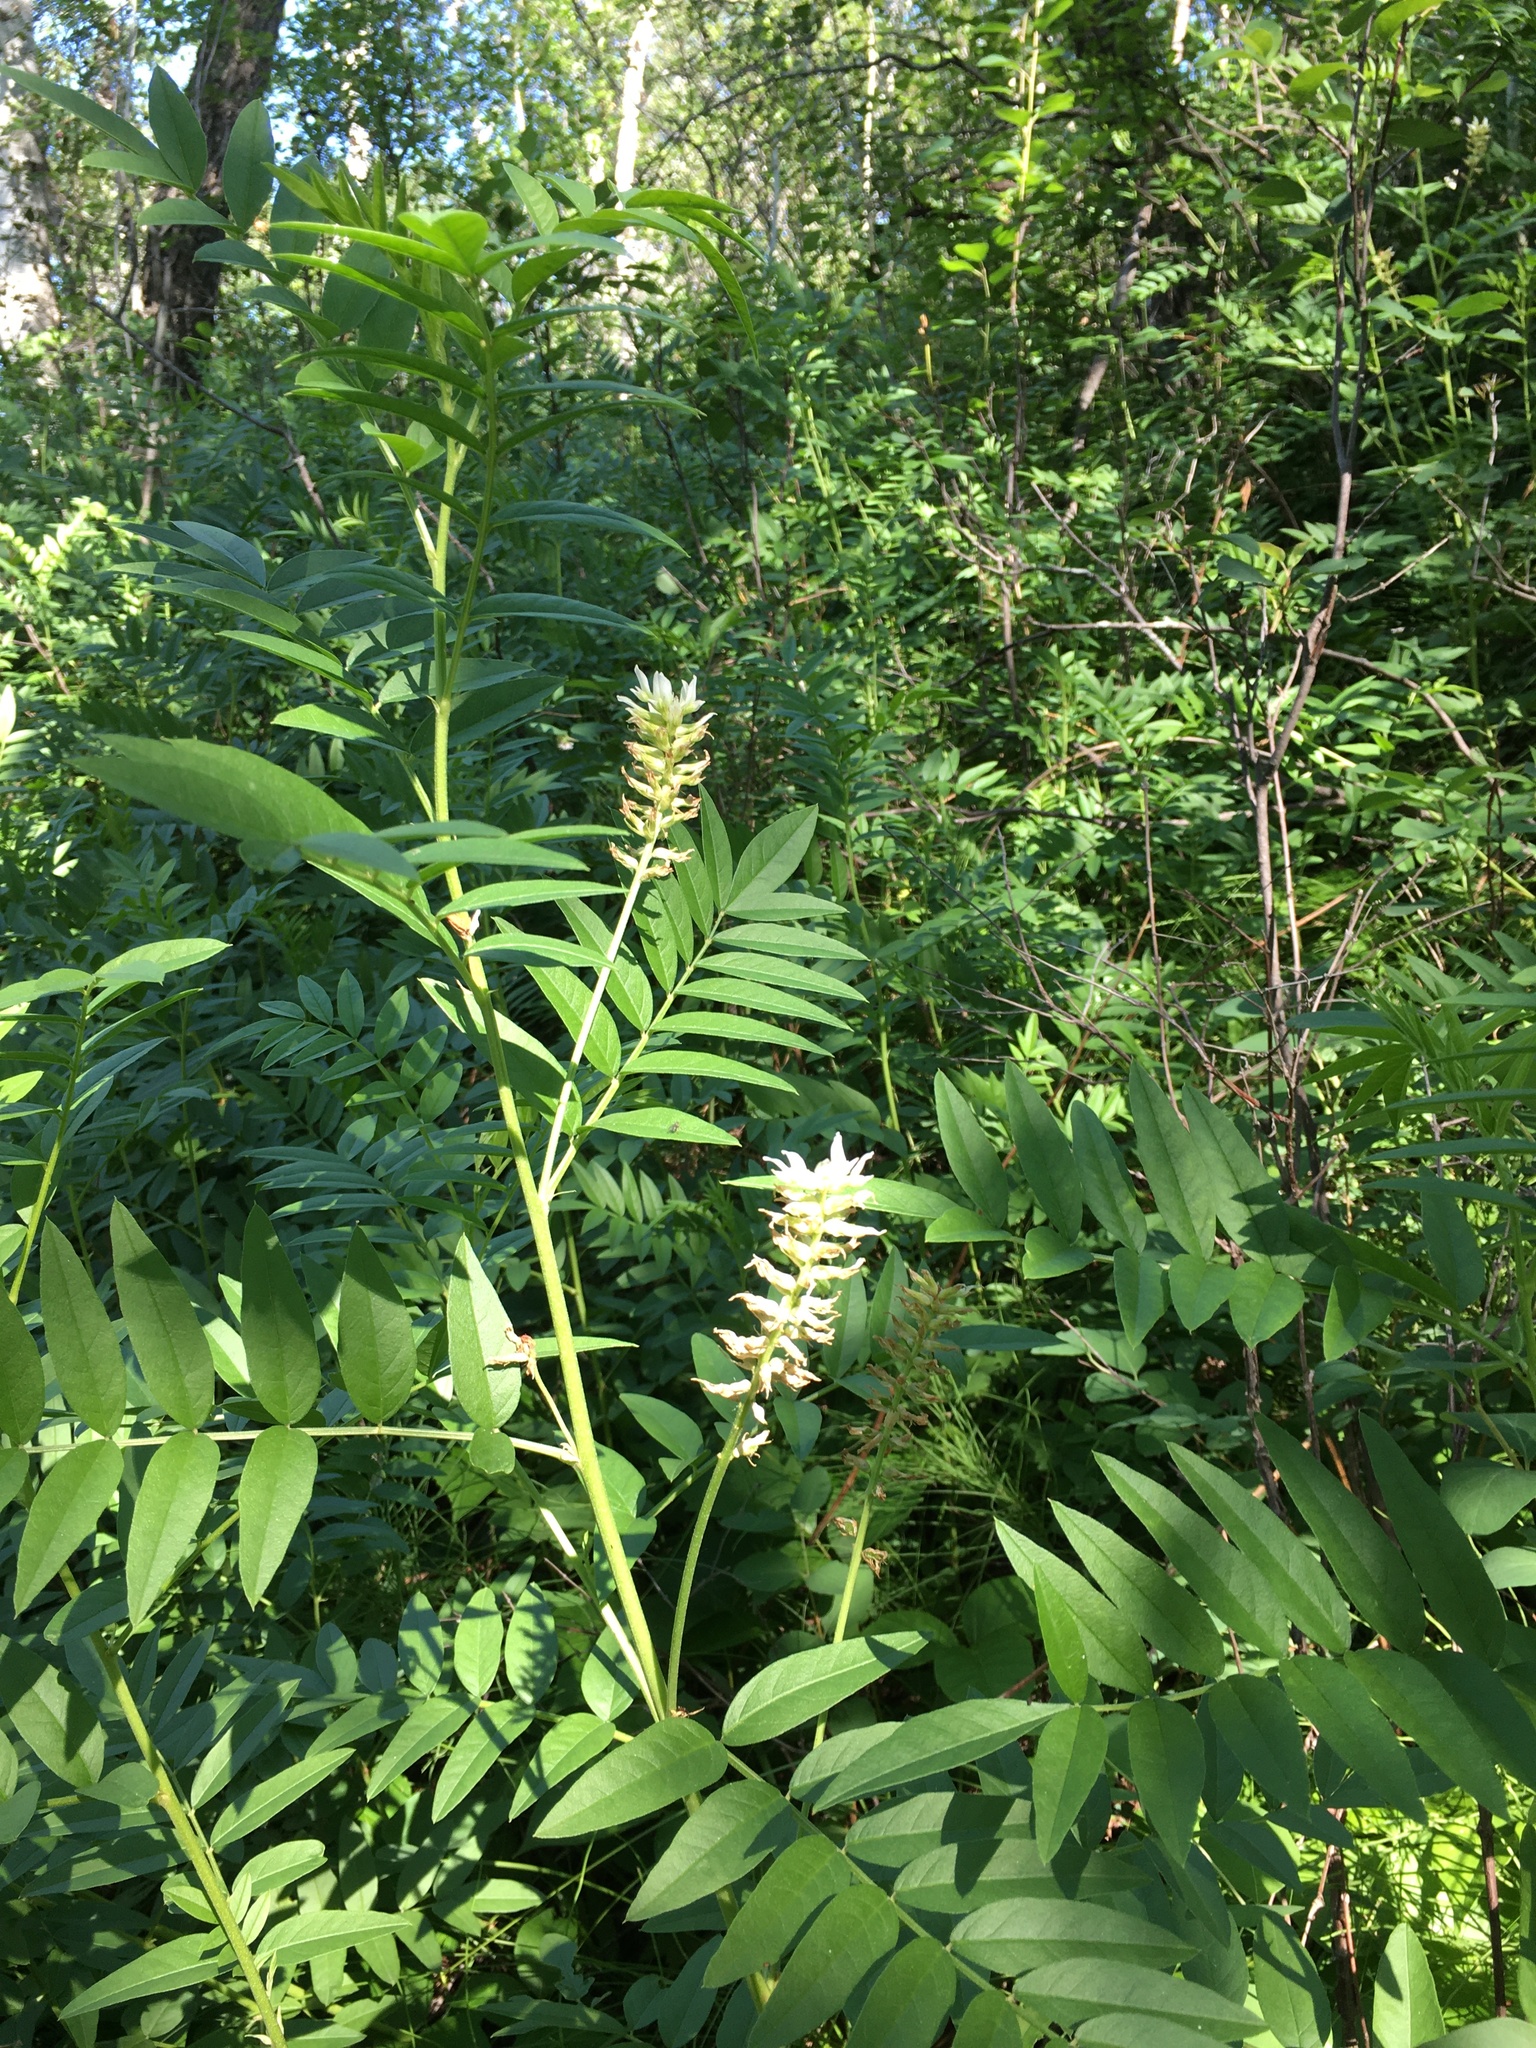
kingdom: Plantae
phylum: Tracheophyta
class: Magnoliopsida
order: Fabales
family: Fabaceae
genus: Glycyrrhiza
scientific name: Glycyrrhiza lepidota
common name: American liquorice
